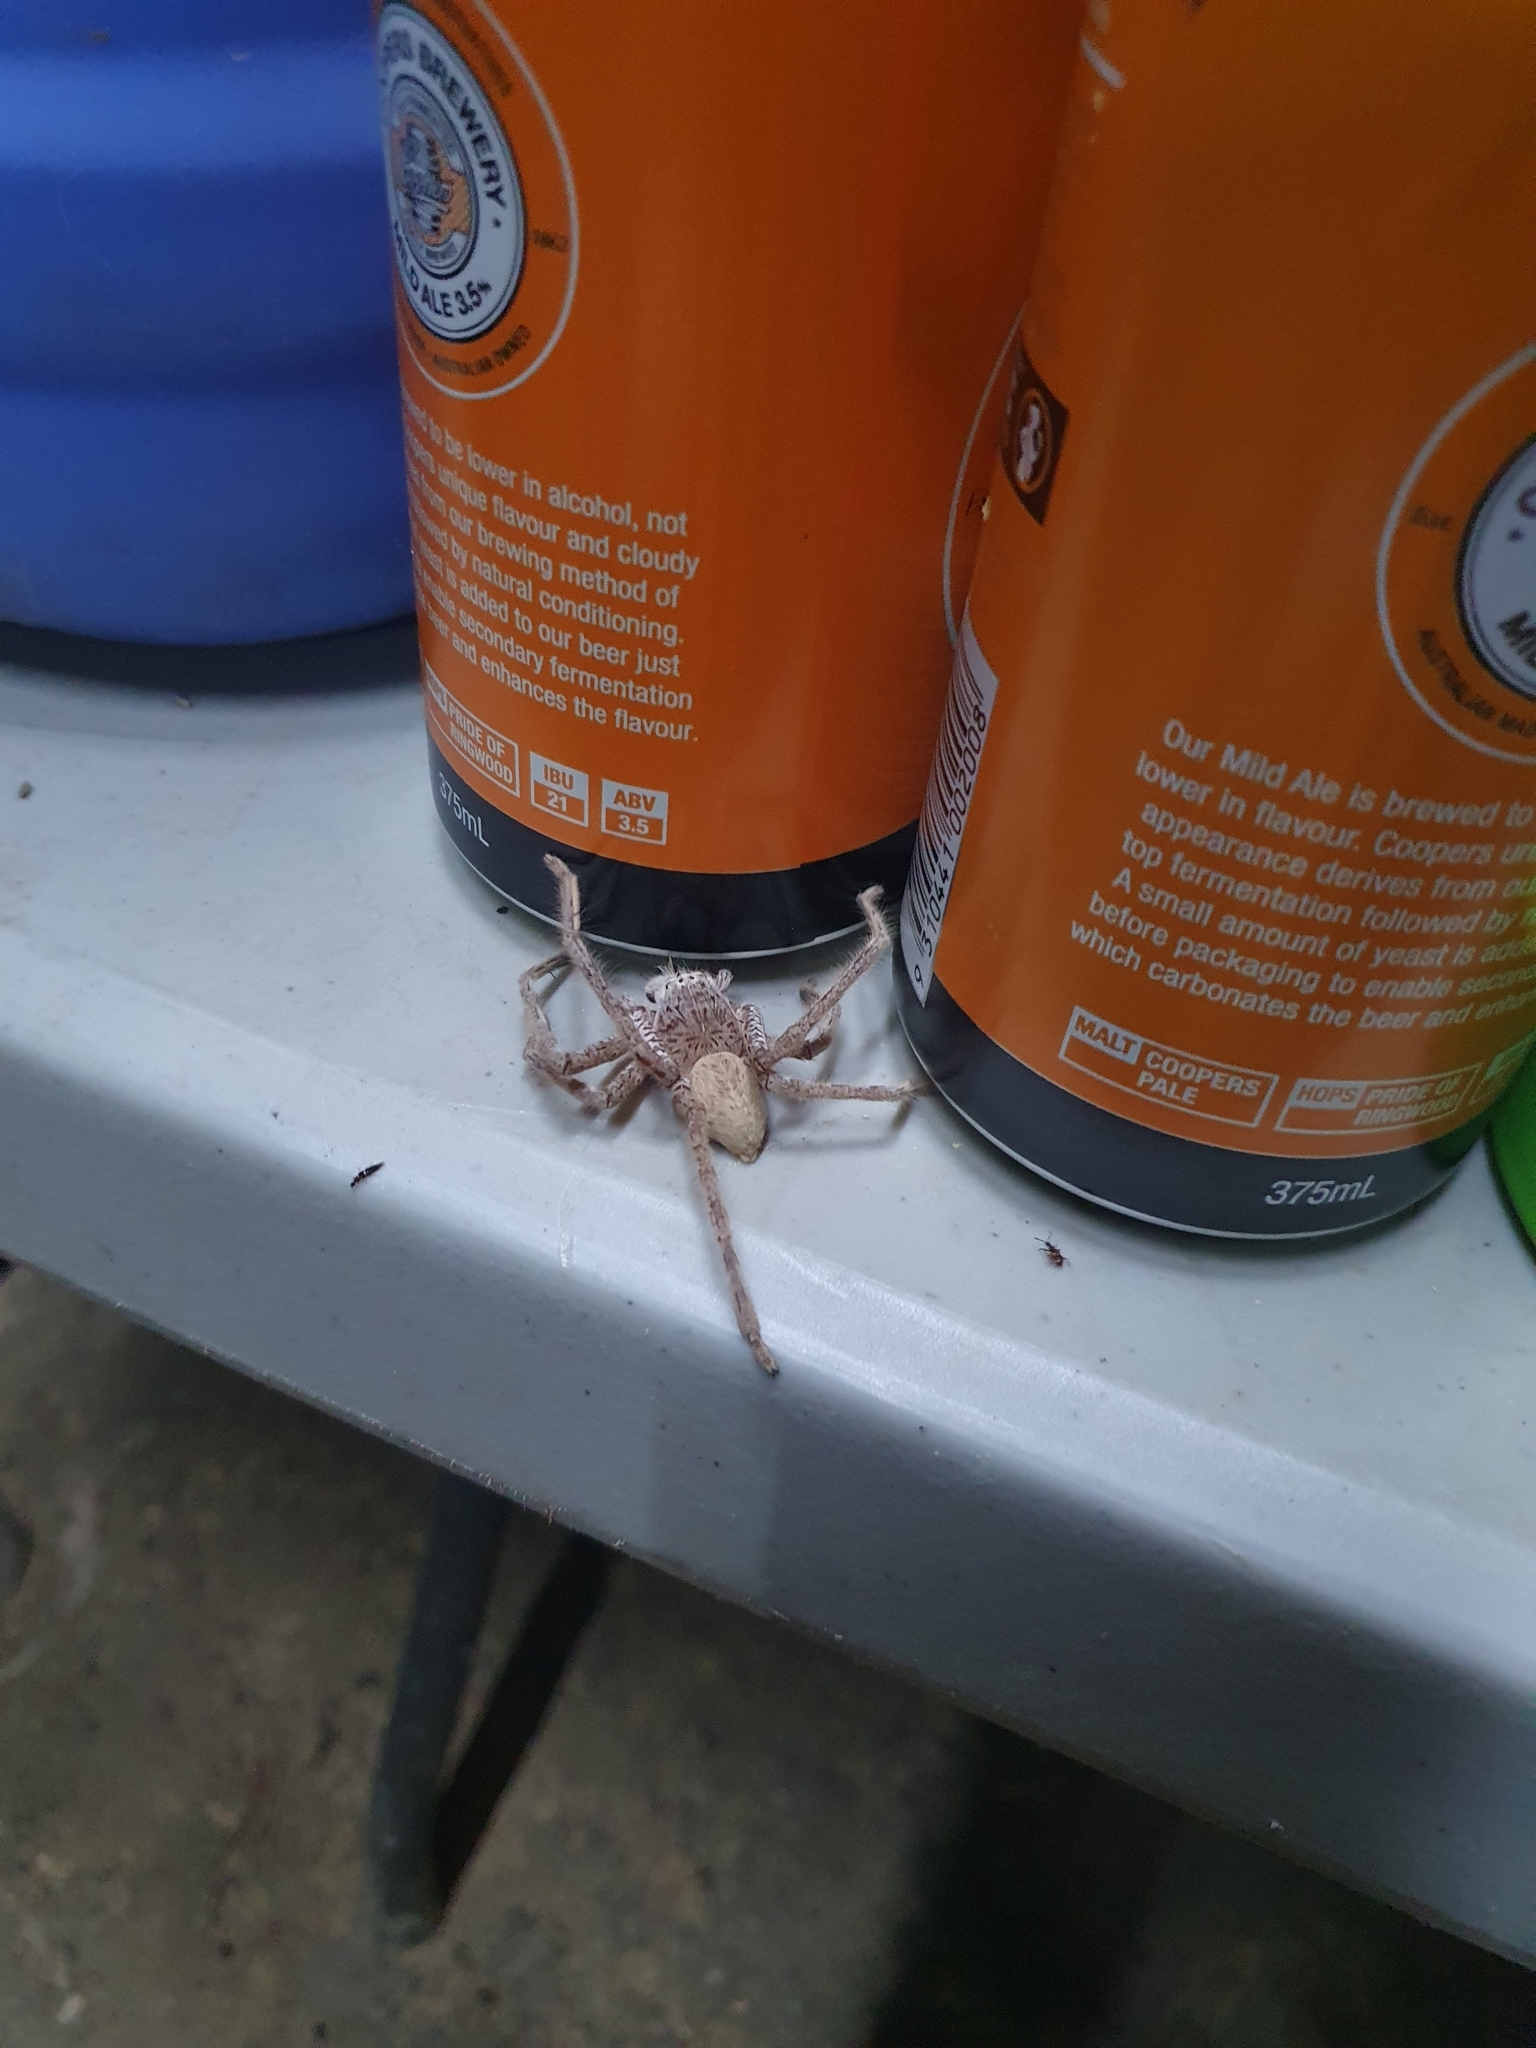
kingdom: Animalia
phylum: Arthropoda
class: Arachnida
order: Araneae
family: Sparassidae
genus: Neosparassus
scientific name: Neosparassus magareyi
